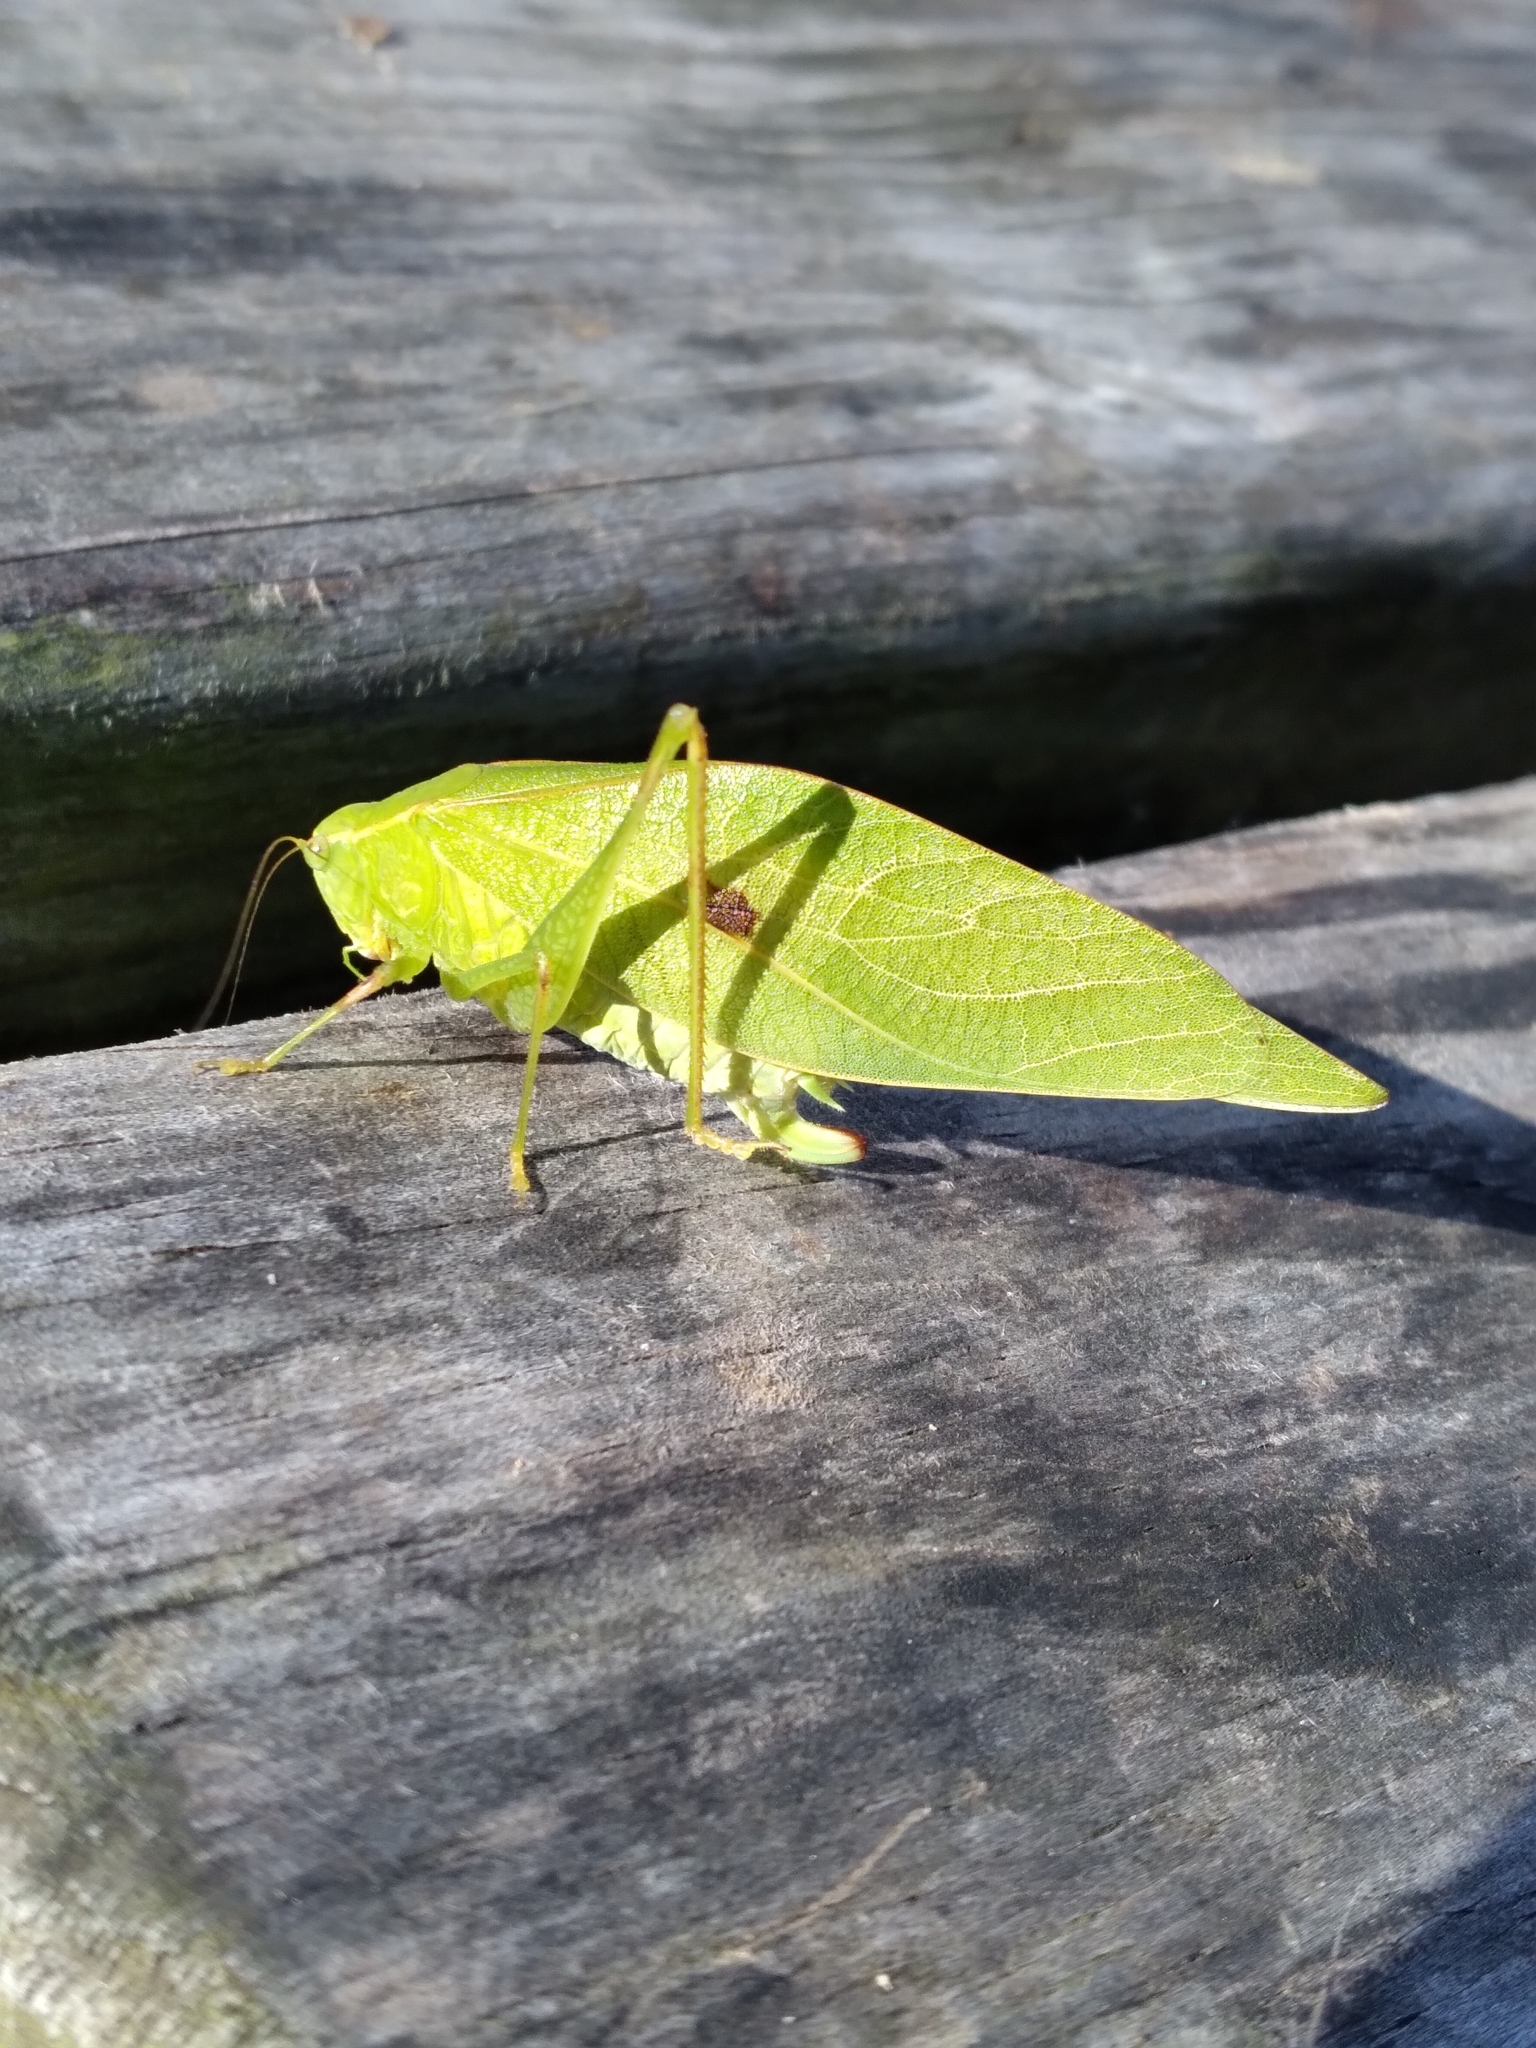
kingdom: Animalia
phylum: Arthropoda
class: Insecta
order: Orthoptera
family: Tettigoniidae
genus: Microcentrum
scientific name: Microcentrum retinerve
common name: Angular-winged katydid
